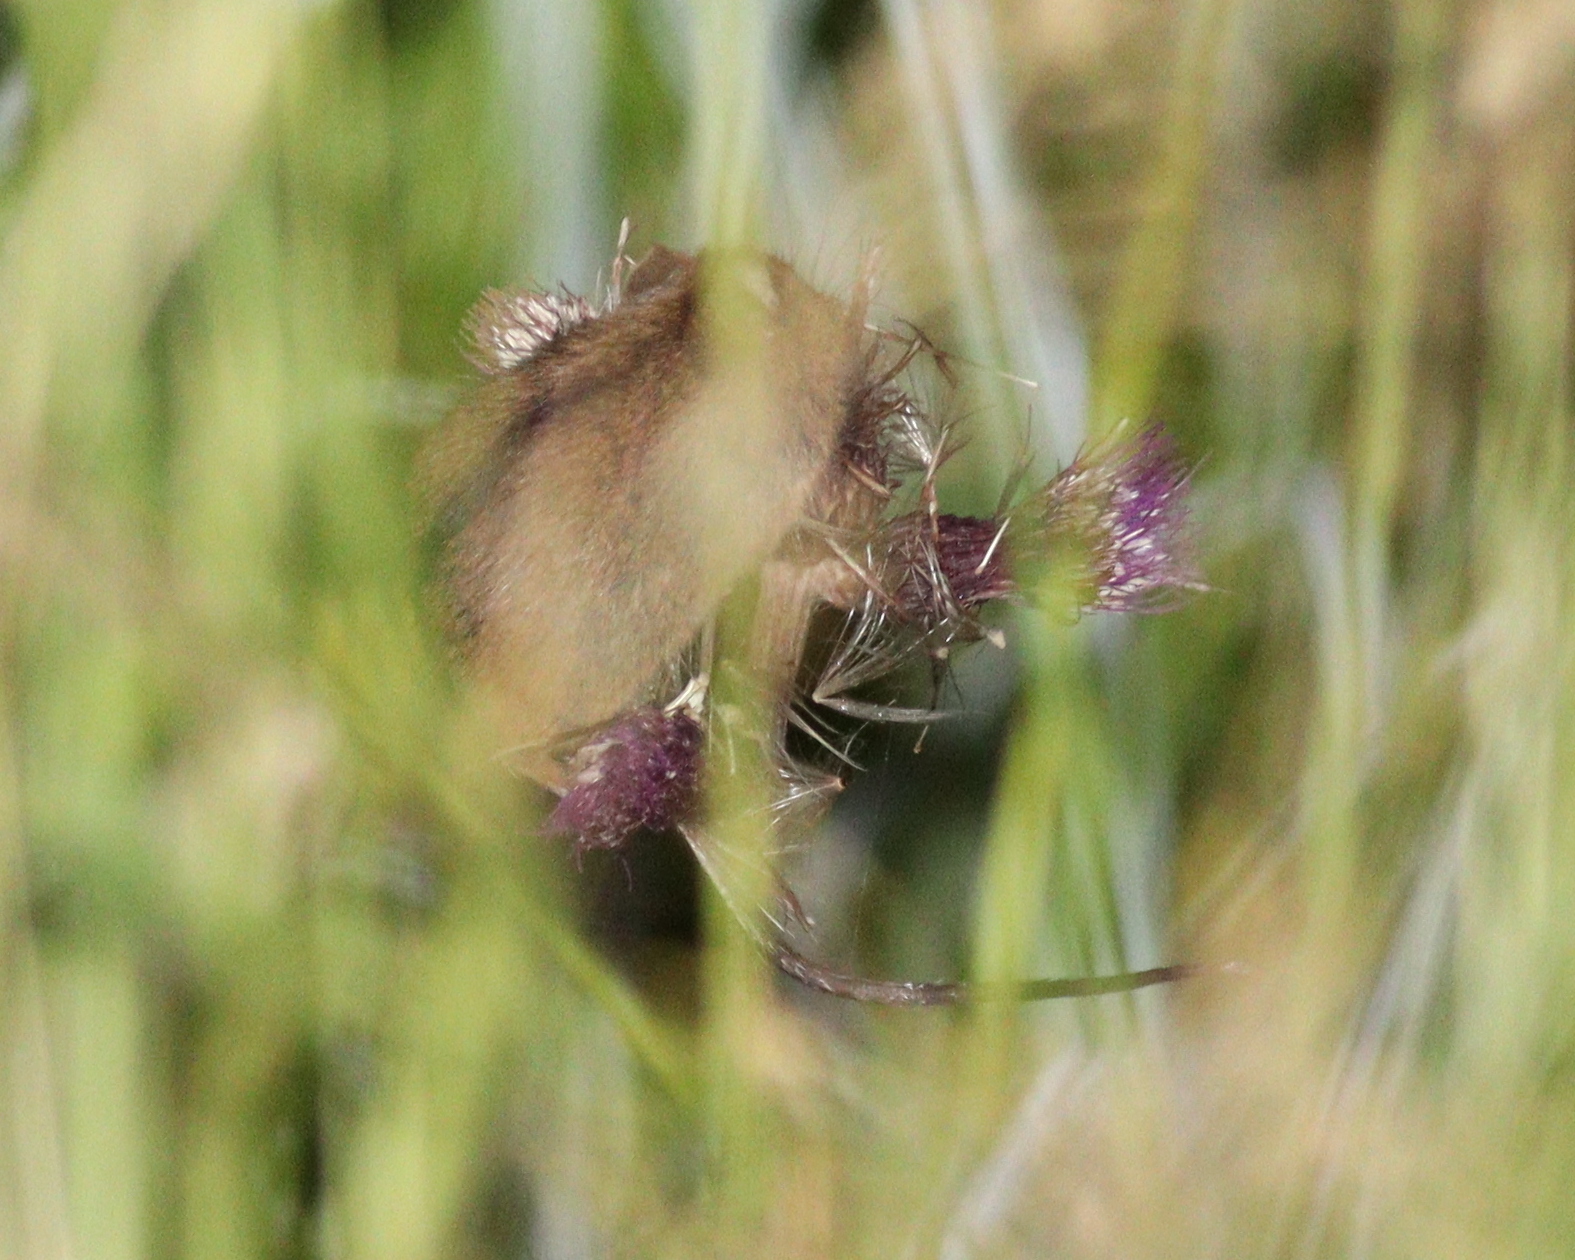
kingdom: Animalia
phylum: Chordata
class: Mammalia
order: Rodentia
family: Muridae
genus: Apodemus
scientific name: Apodemus agrarius
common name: Striped field mouse
